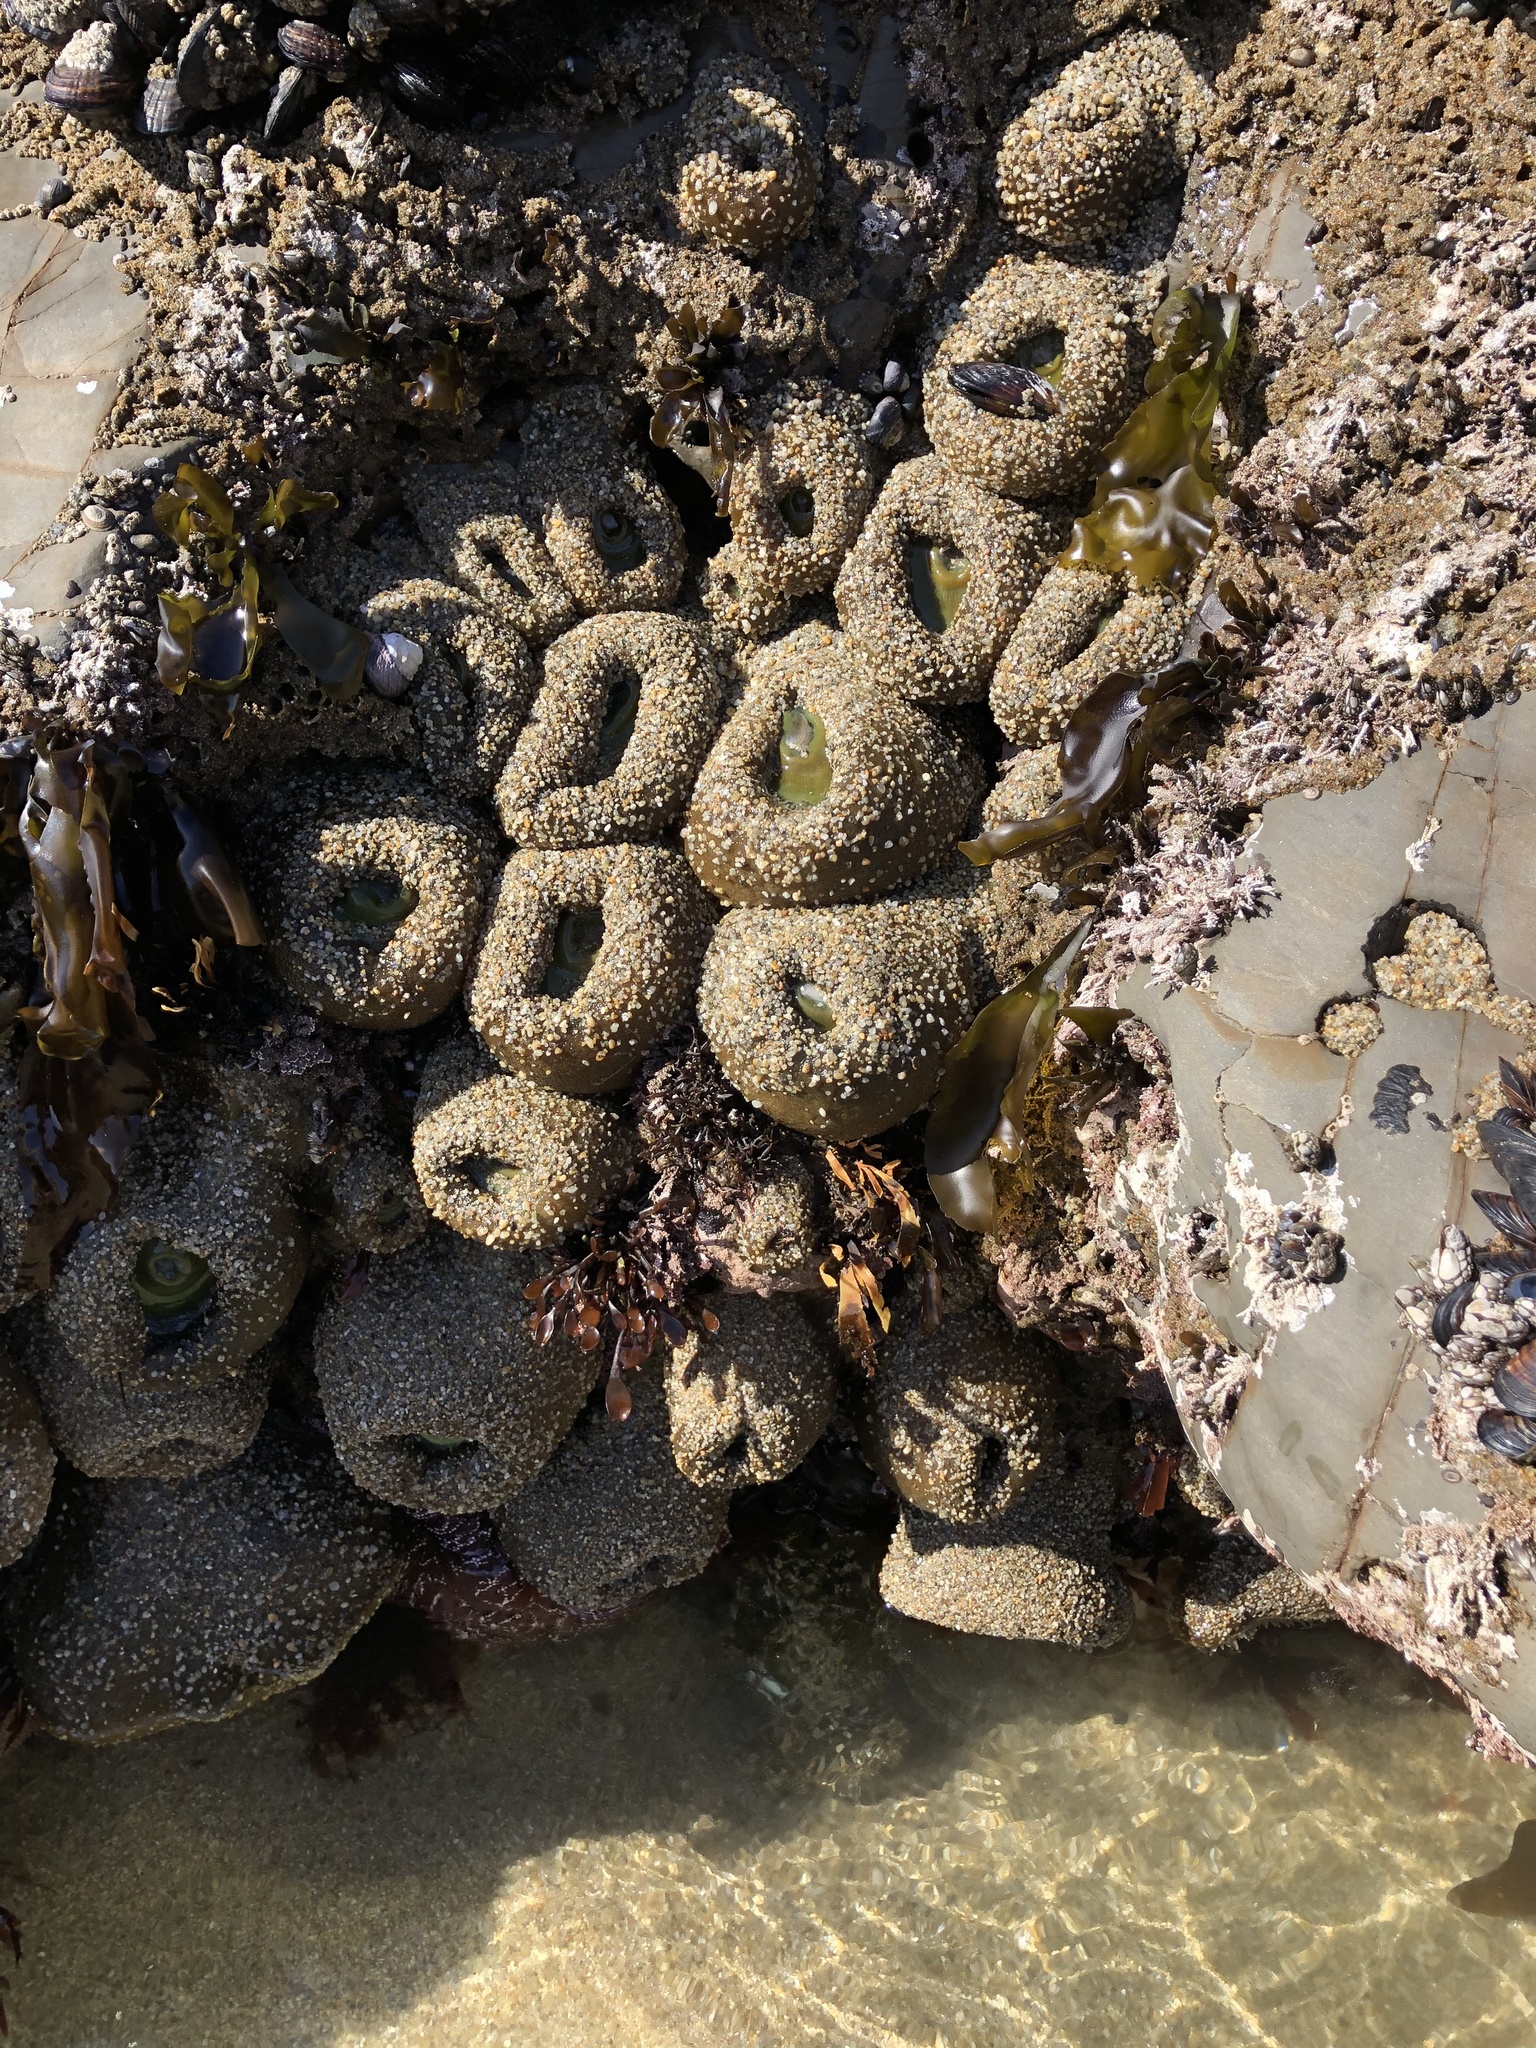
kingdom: Animalia
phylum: Cnidaria
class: Anthozoa
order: Actiniaria
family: Actiniidae
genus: Anthopleura
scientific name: Anthopleura xanthogrammica
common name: Giant green anemone
